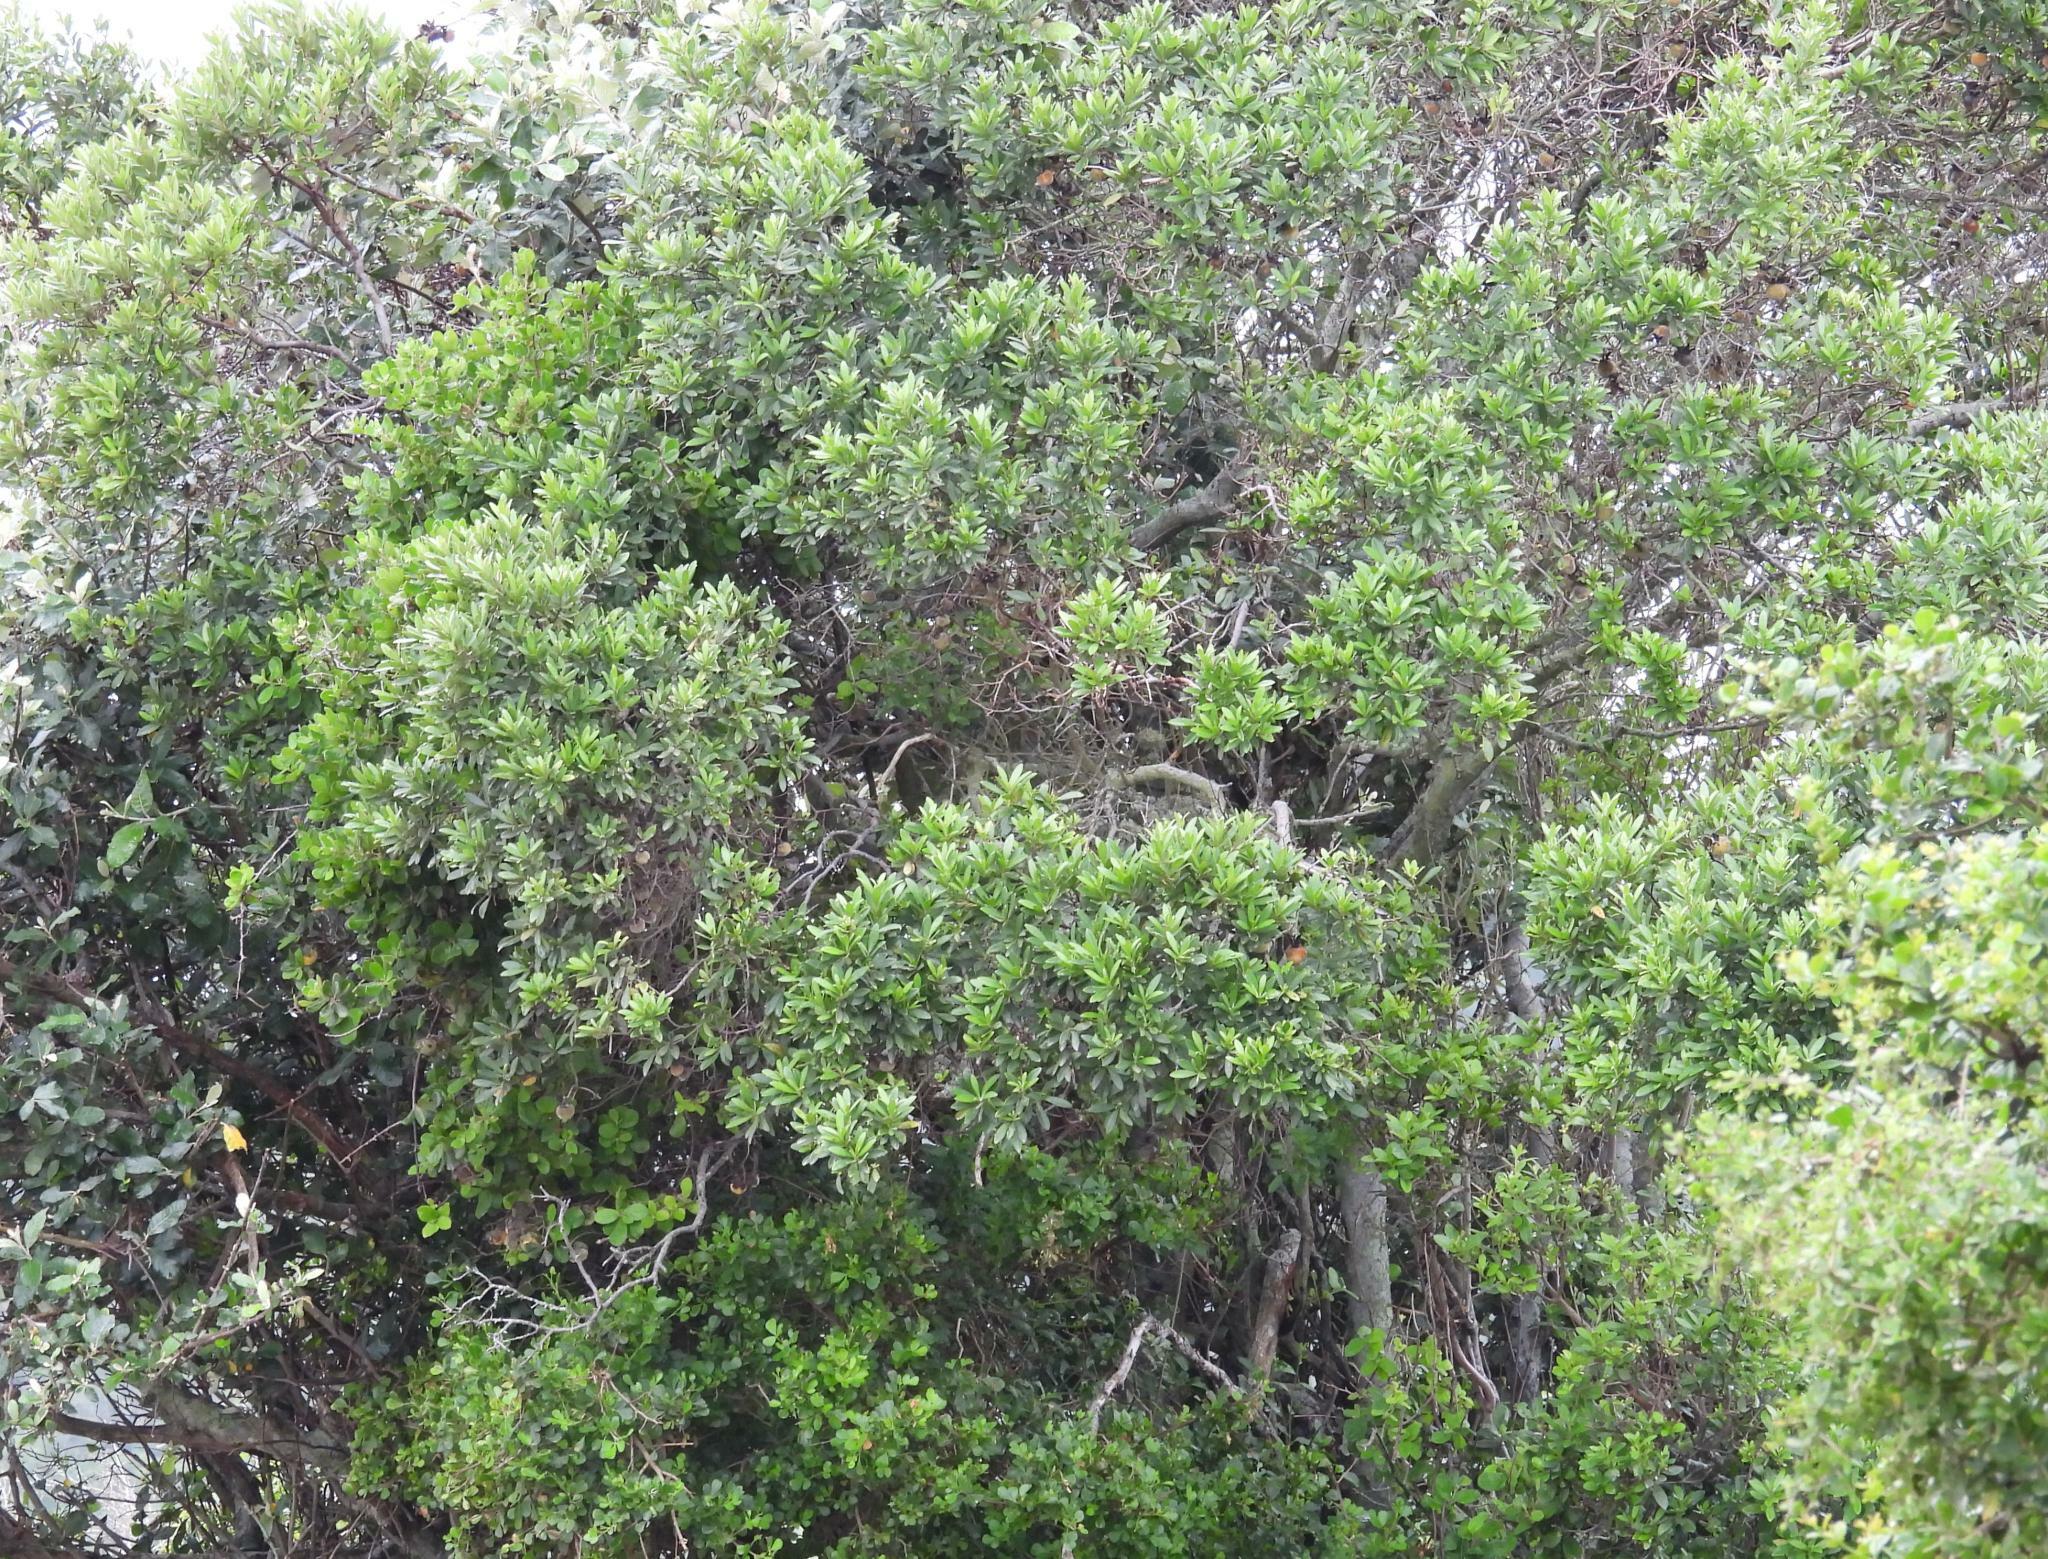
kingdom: Plantae
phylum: Tracheophyta
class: Magnoliopsida
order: Ericales
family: Ebenaceae
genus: Diospyros
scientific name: Diospyros dichrophylla
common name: Common star-apple
